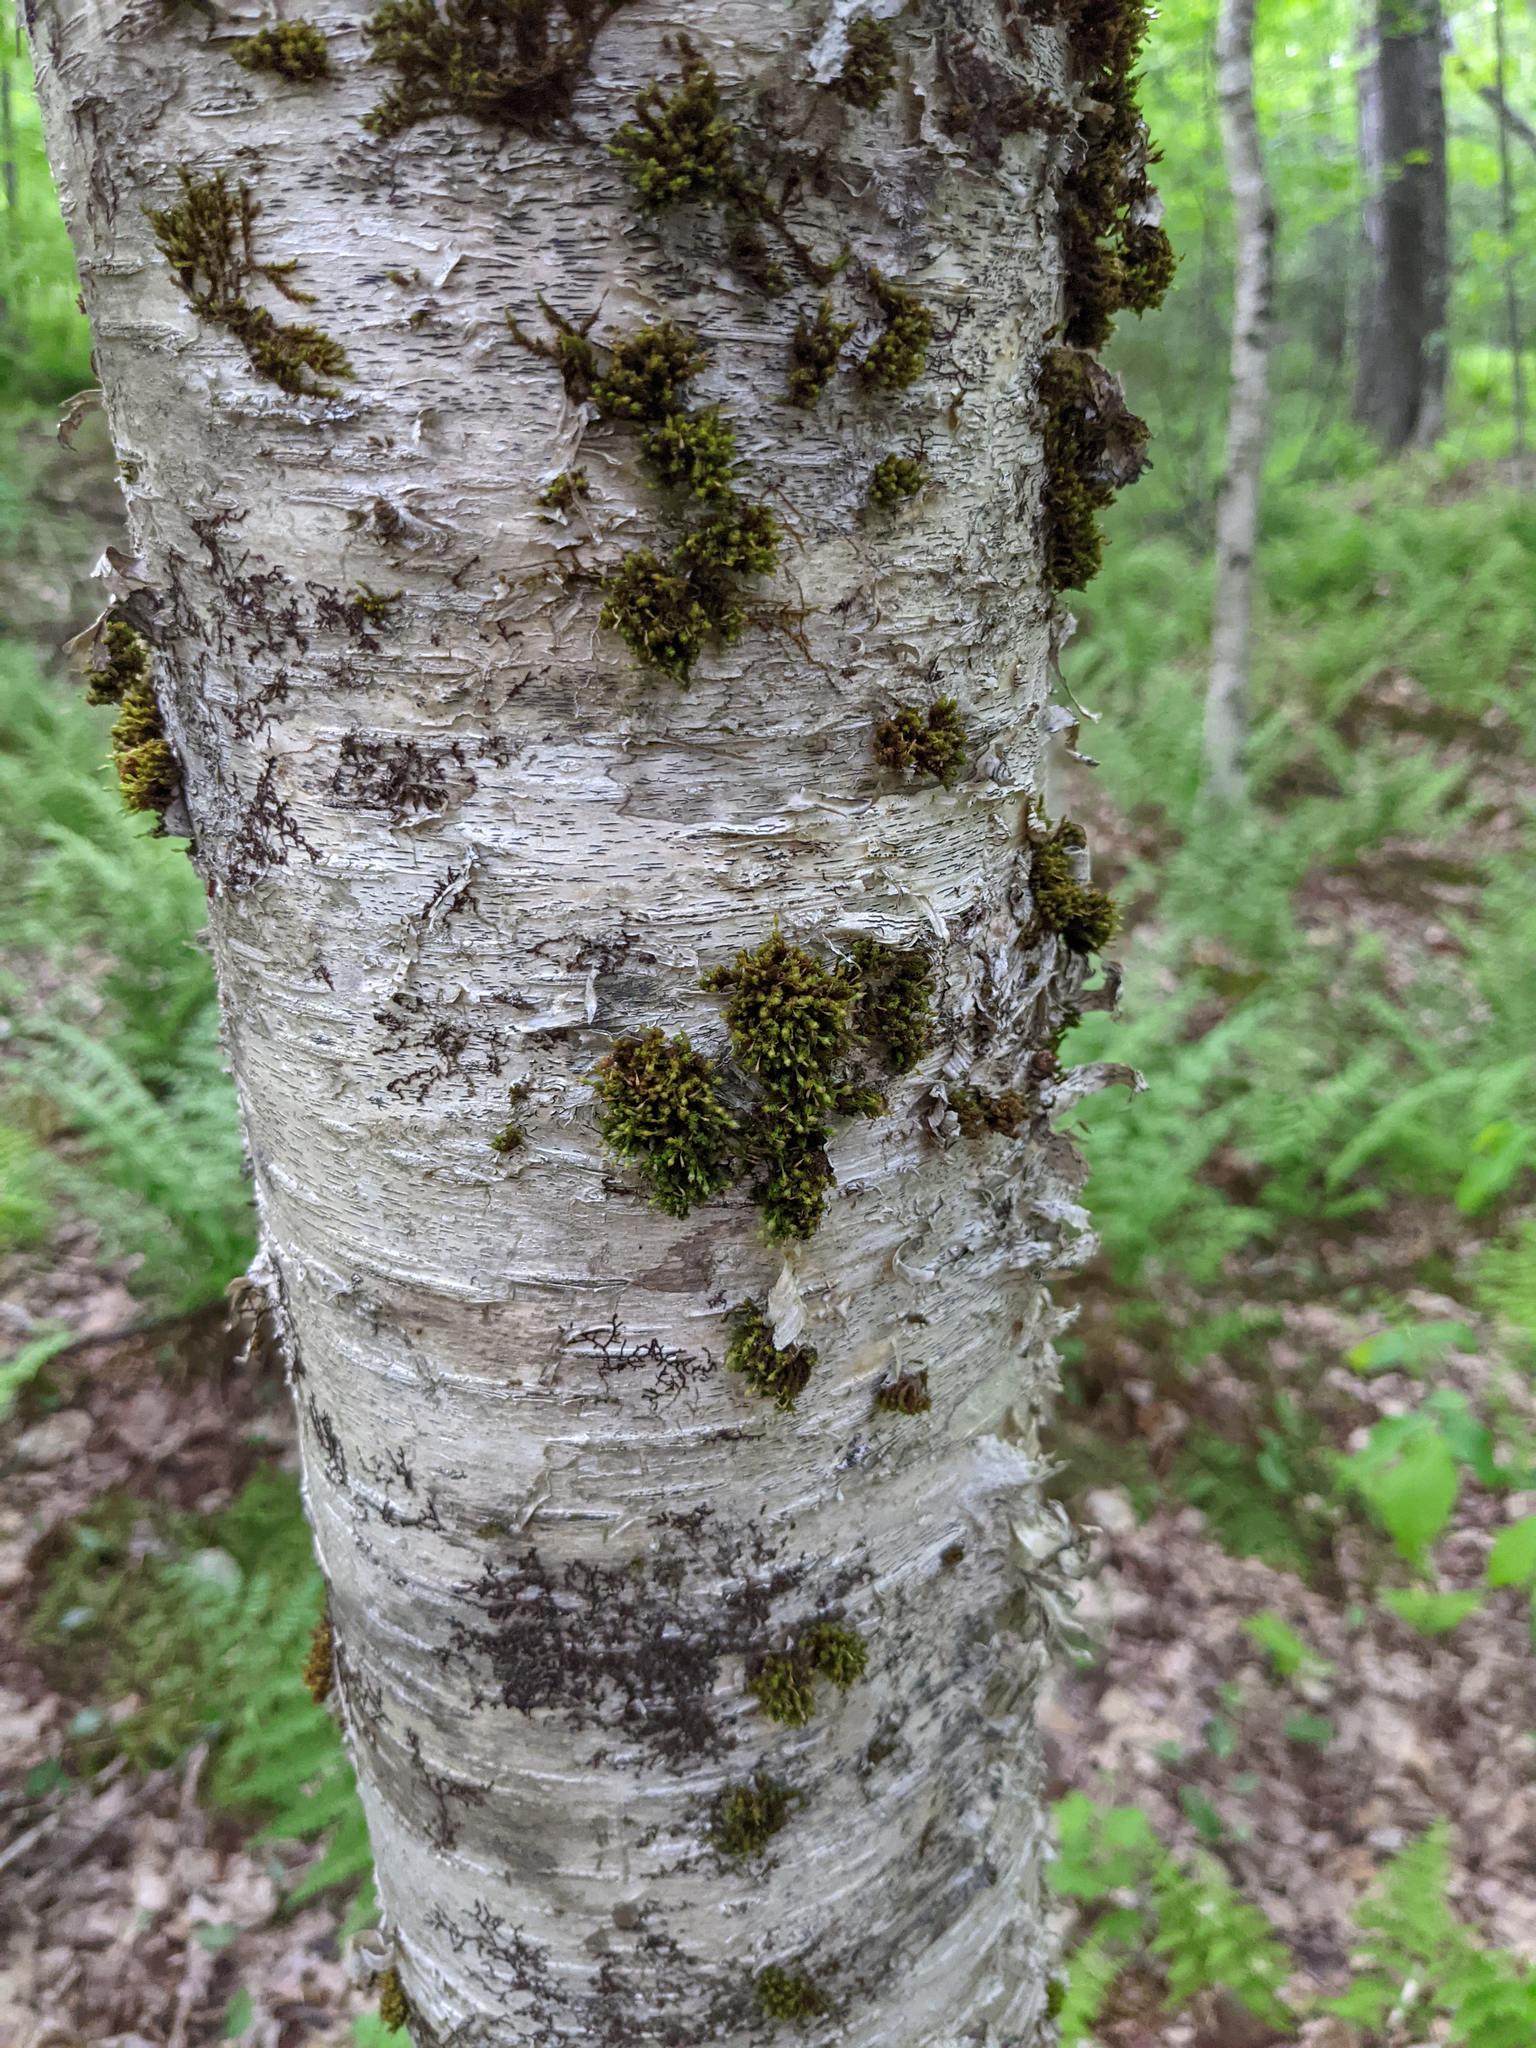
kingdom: Plantae
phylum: Bryophyta
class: Bryopsida
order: Orthotrichales
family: Orthotrichaceae
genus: Ulota
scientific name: Ulota crispa
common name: Crisped pincushion moss
